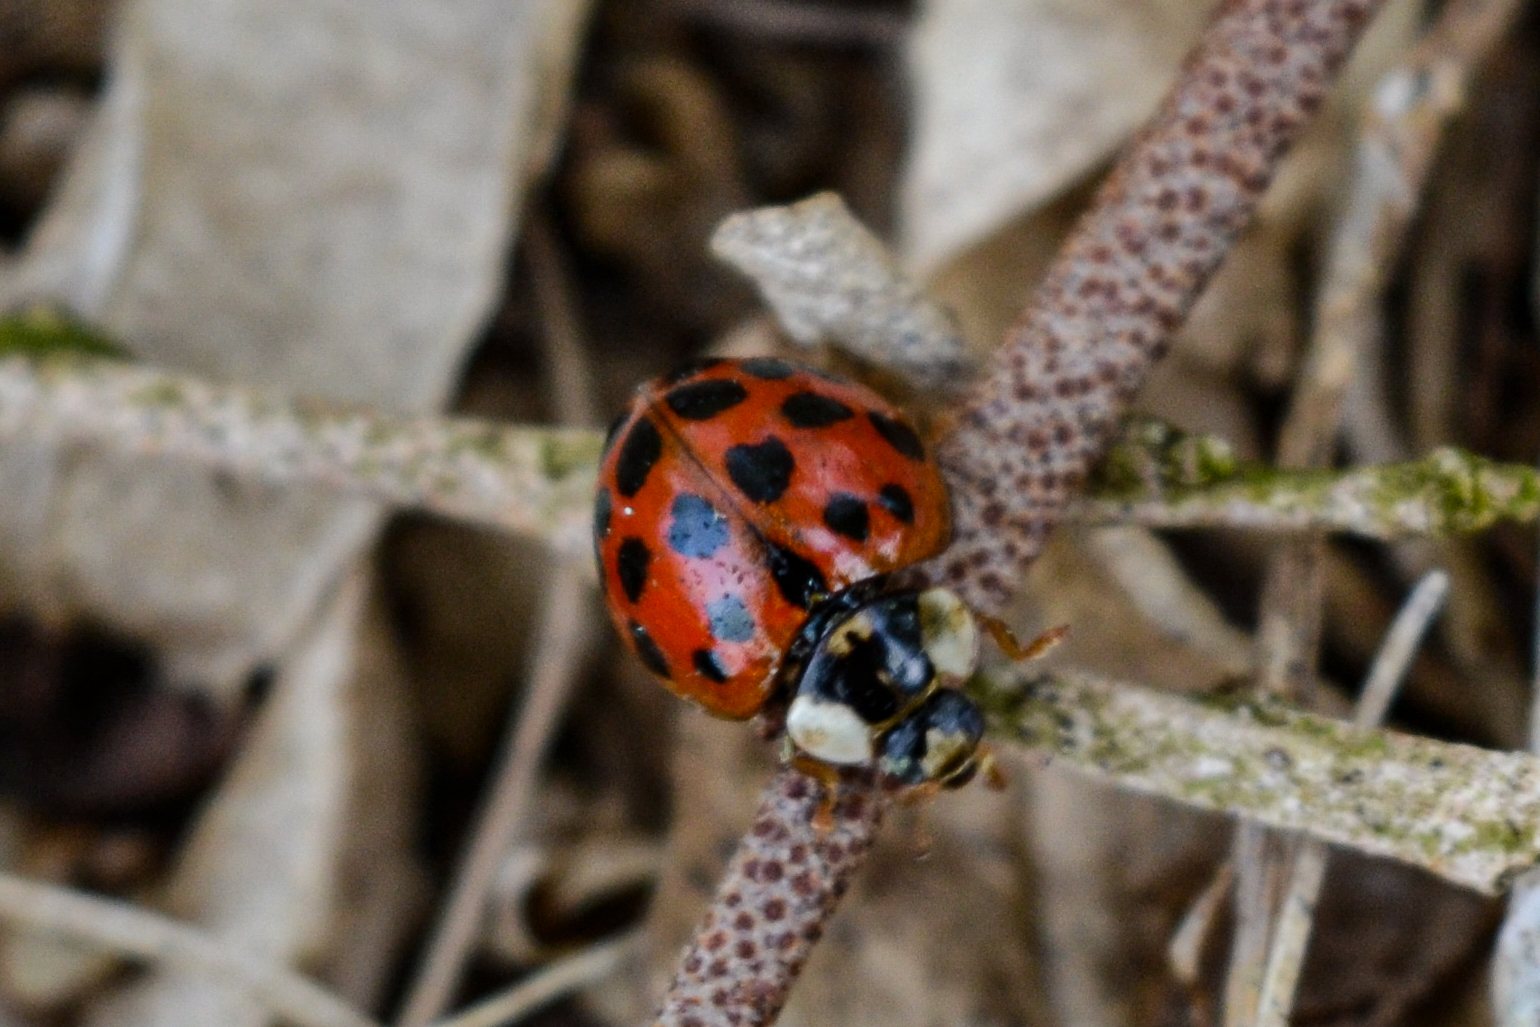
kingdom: Animalia
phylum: Arthropoda
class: Insecta
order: Coleoptera
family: Coccinellidae
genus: Harmonia
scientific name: Harmonia axyridis
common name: Harlequin ladybird
